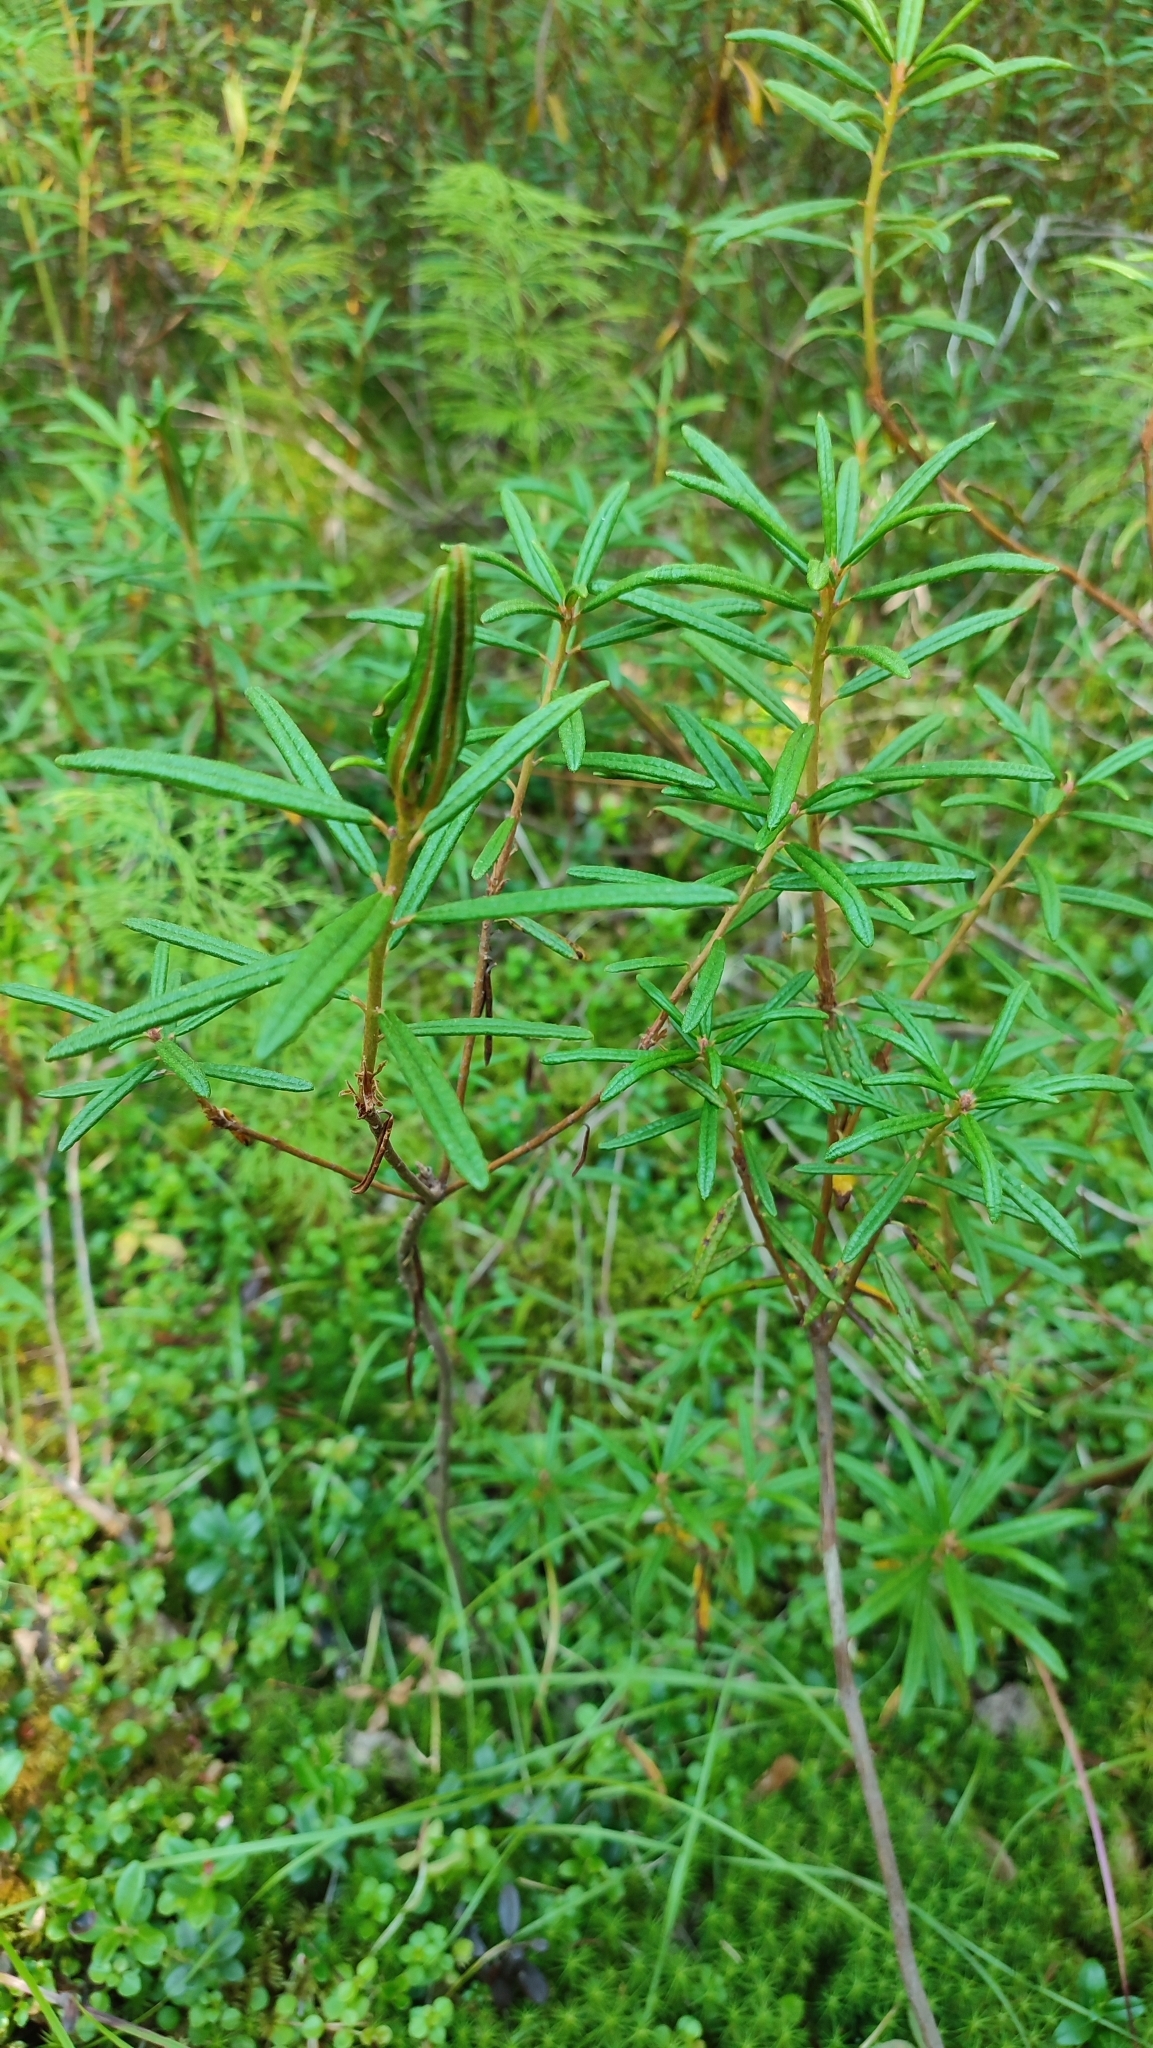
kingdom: Plantae
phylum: Tracheophyta
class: Magnoliopsida
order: Ericales
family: Ericaceae
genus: Rhododendron
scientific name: Rhododendron tomentosum
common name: Marsh labrador tea
